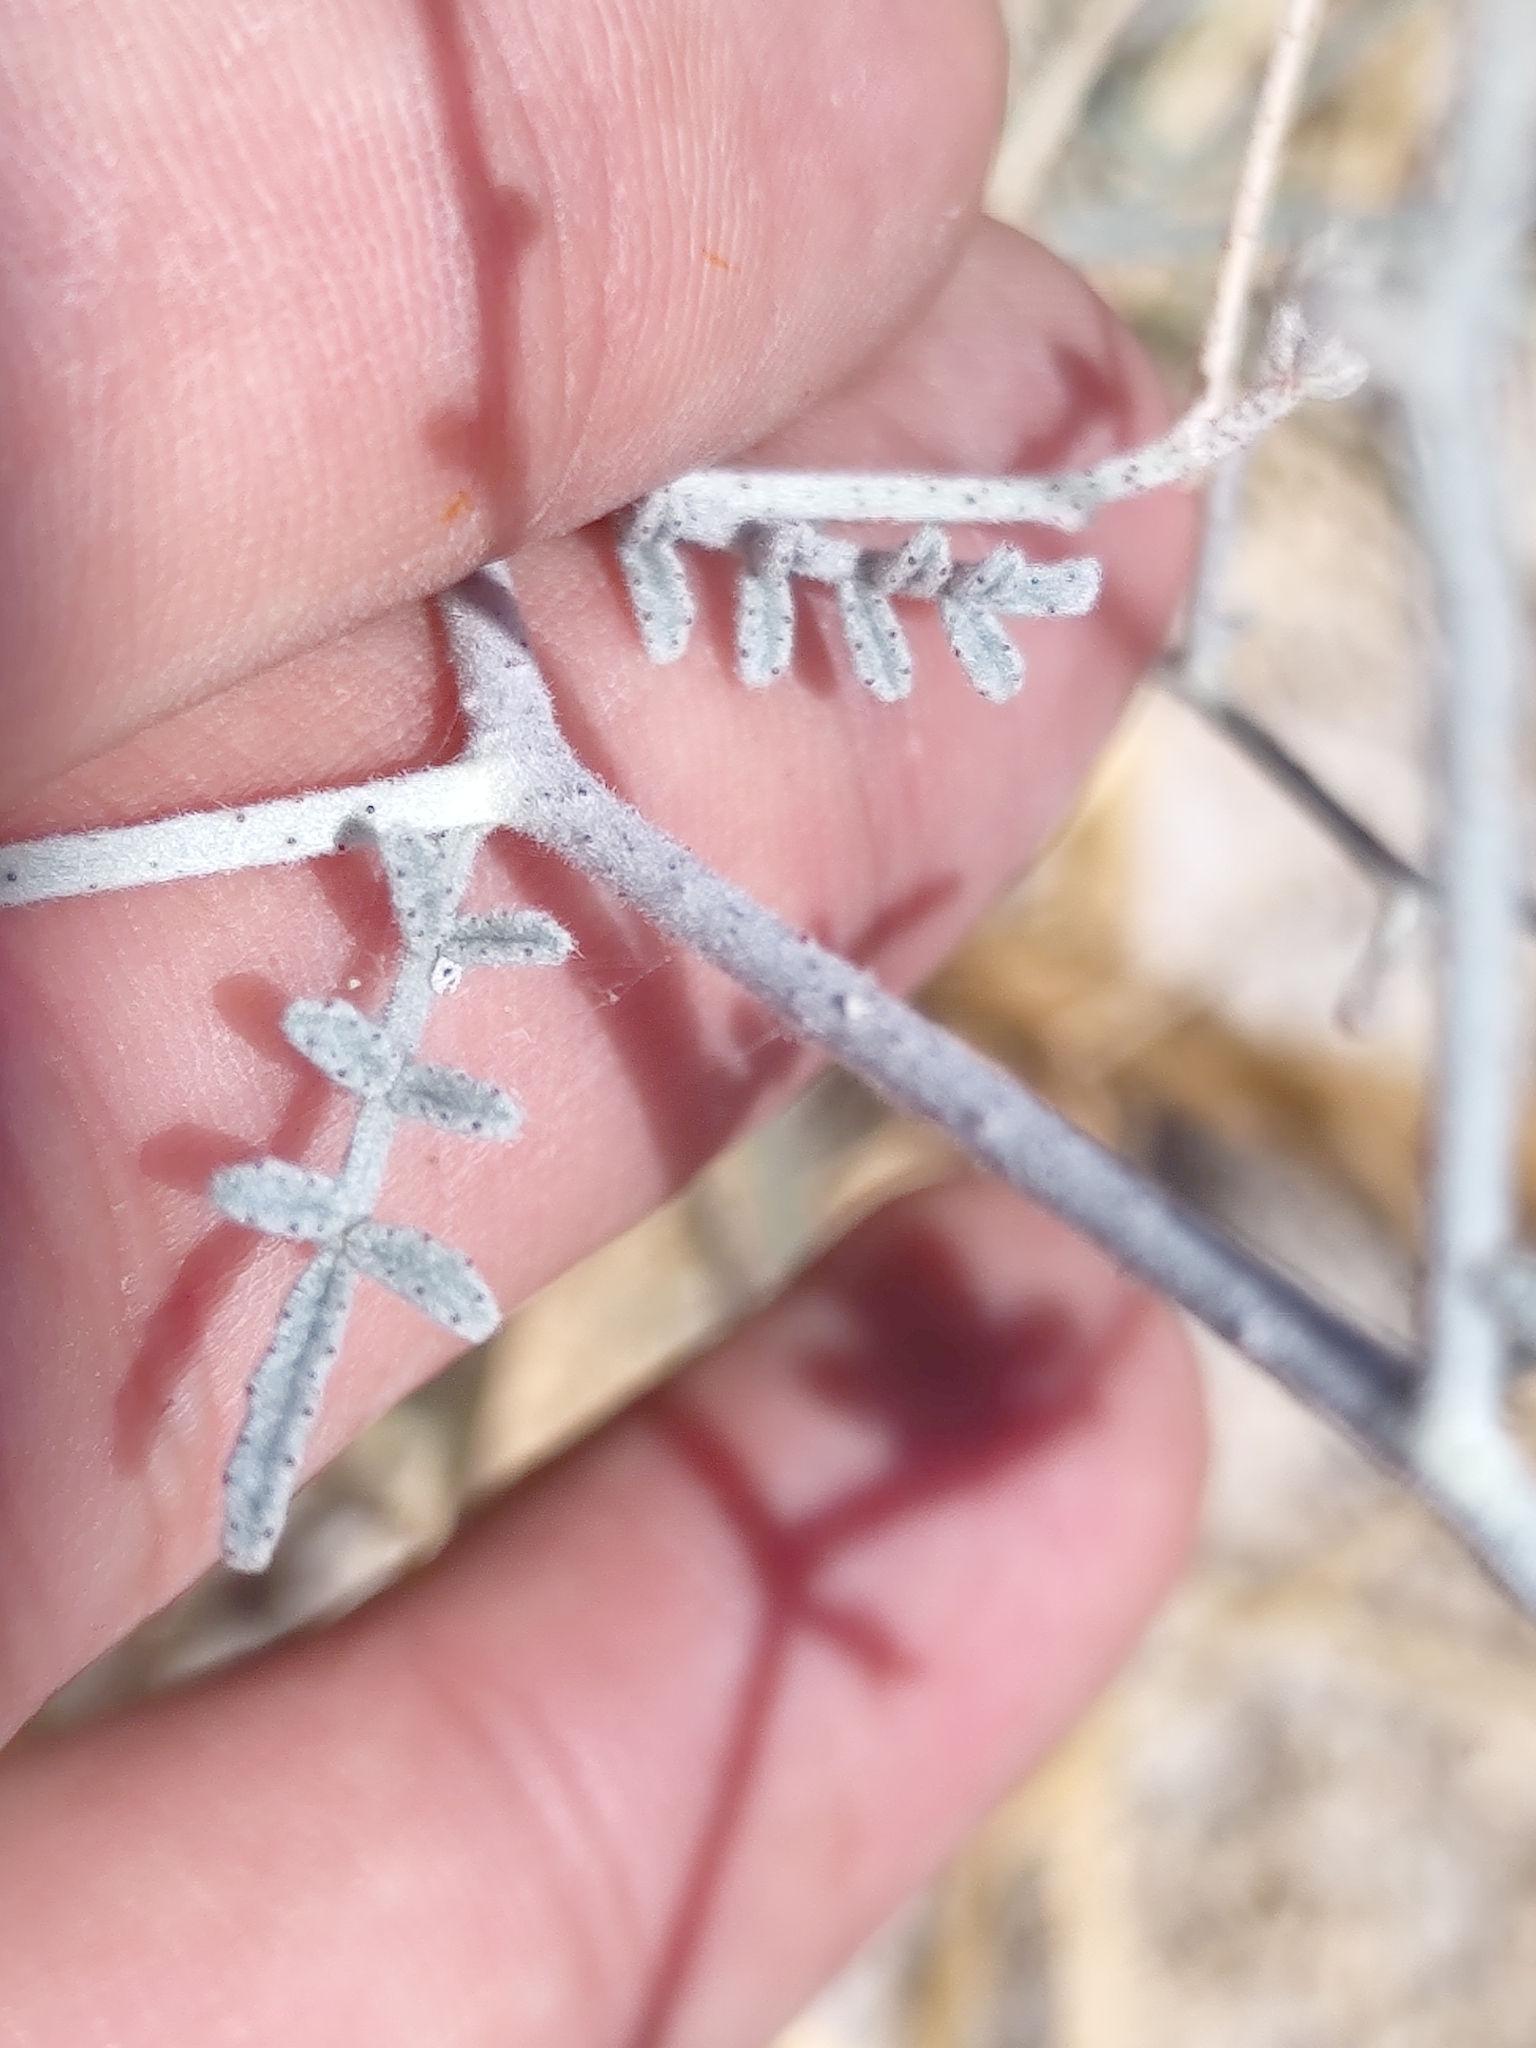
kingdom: Plantae
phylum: Tracheophyta
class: Magnoliopsida
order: Fabales
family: Fabaceae
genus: Psorothamnus
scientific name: Psorothamnus emoryi
